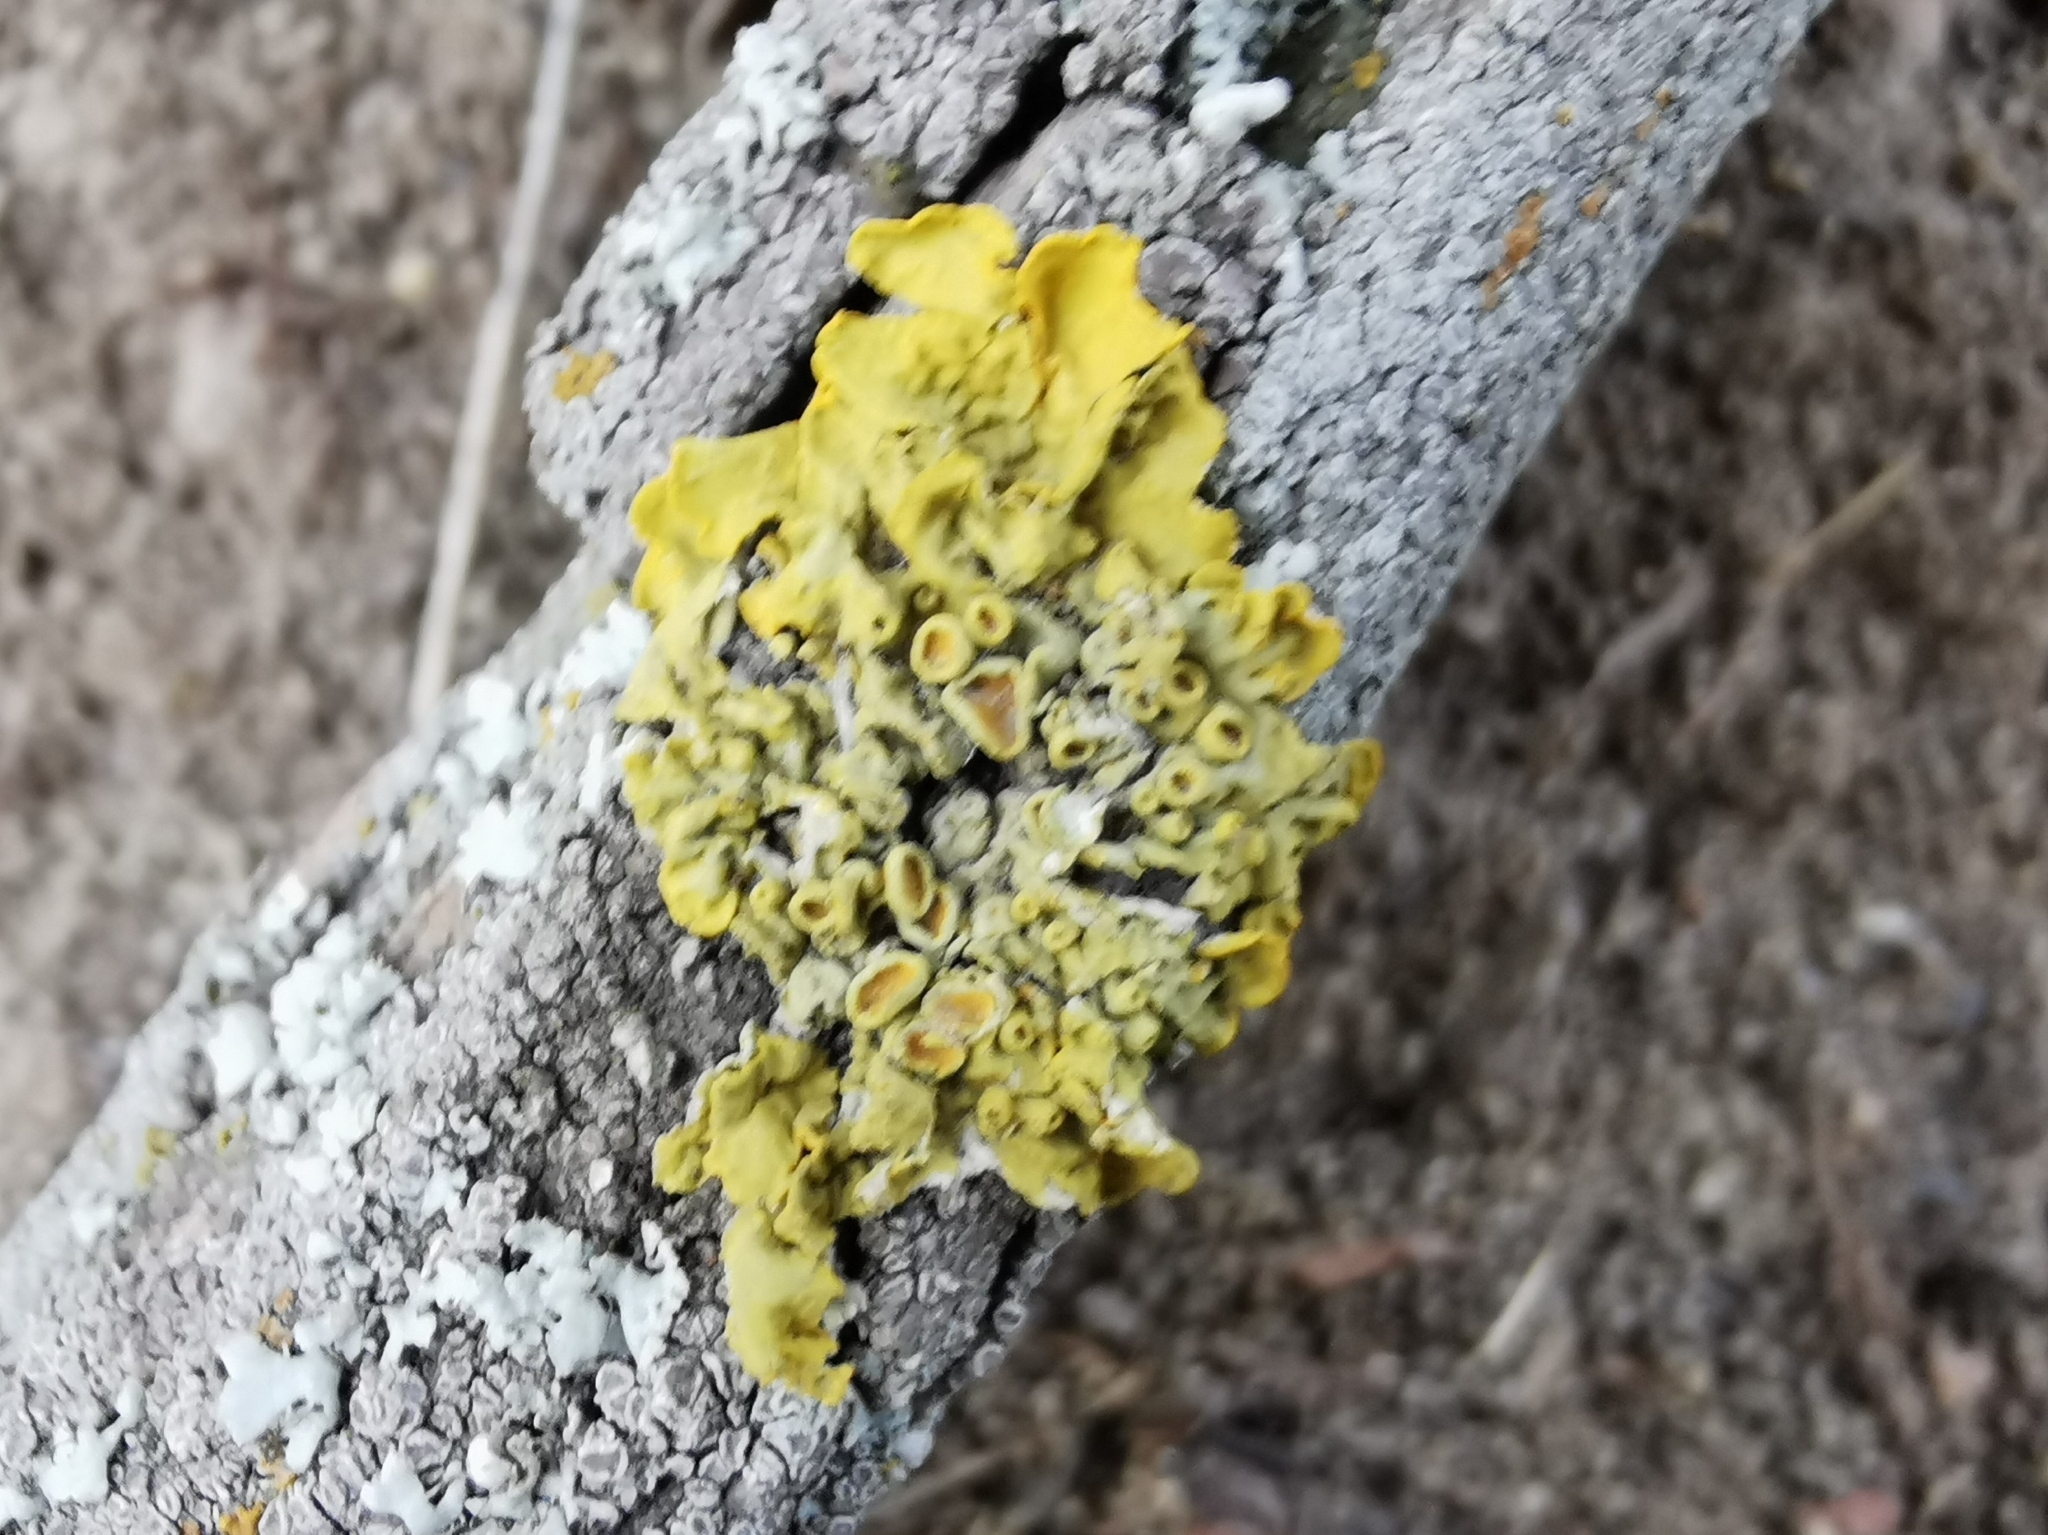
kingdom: Fungi
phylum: Ascomycota
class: Lecanoromycetes
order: Teloschistales
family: Teloschistaceae
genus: Xanthoria
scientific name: Xanthoria parietina
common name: Common orange lichen
